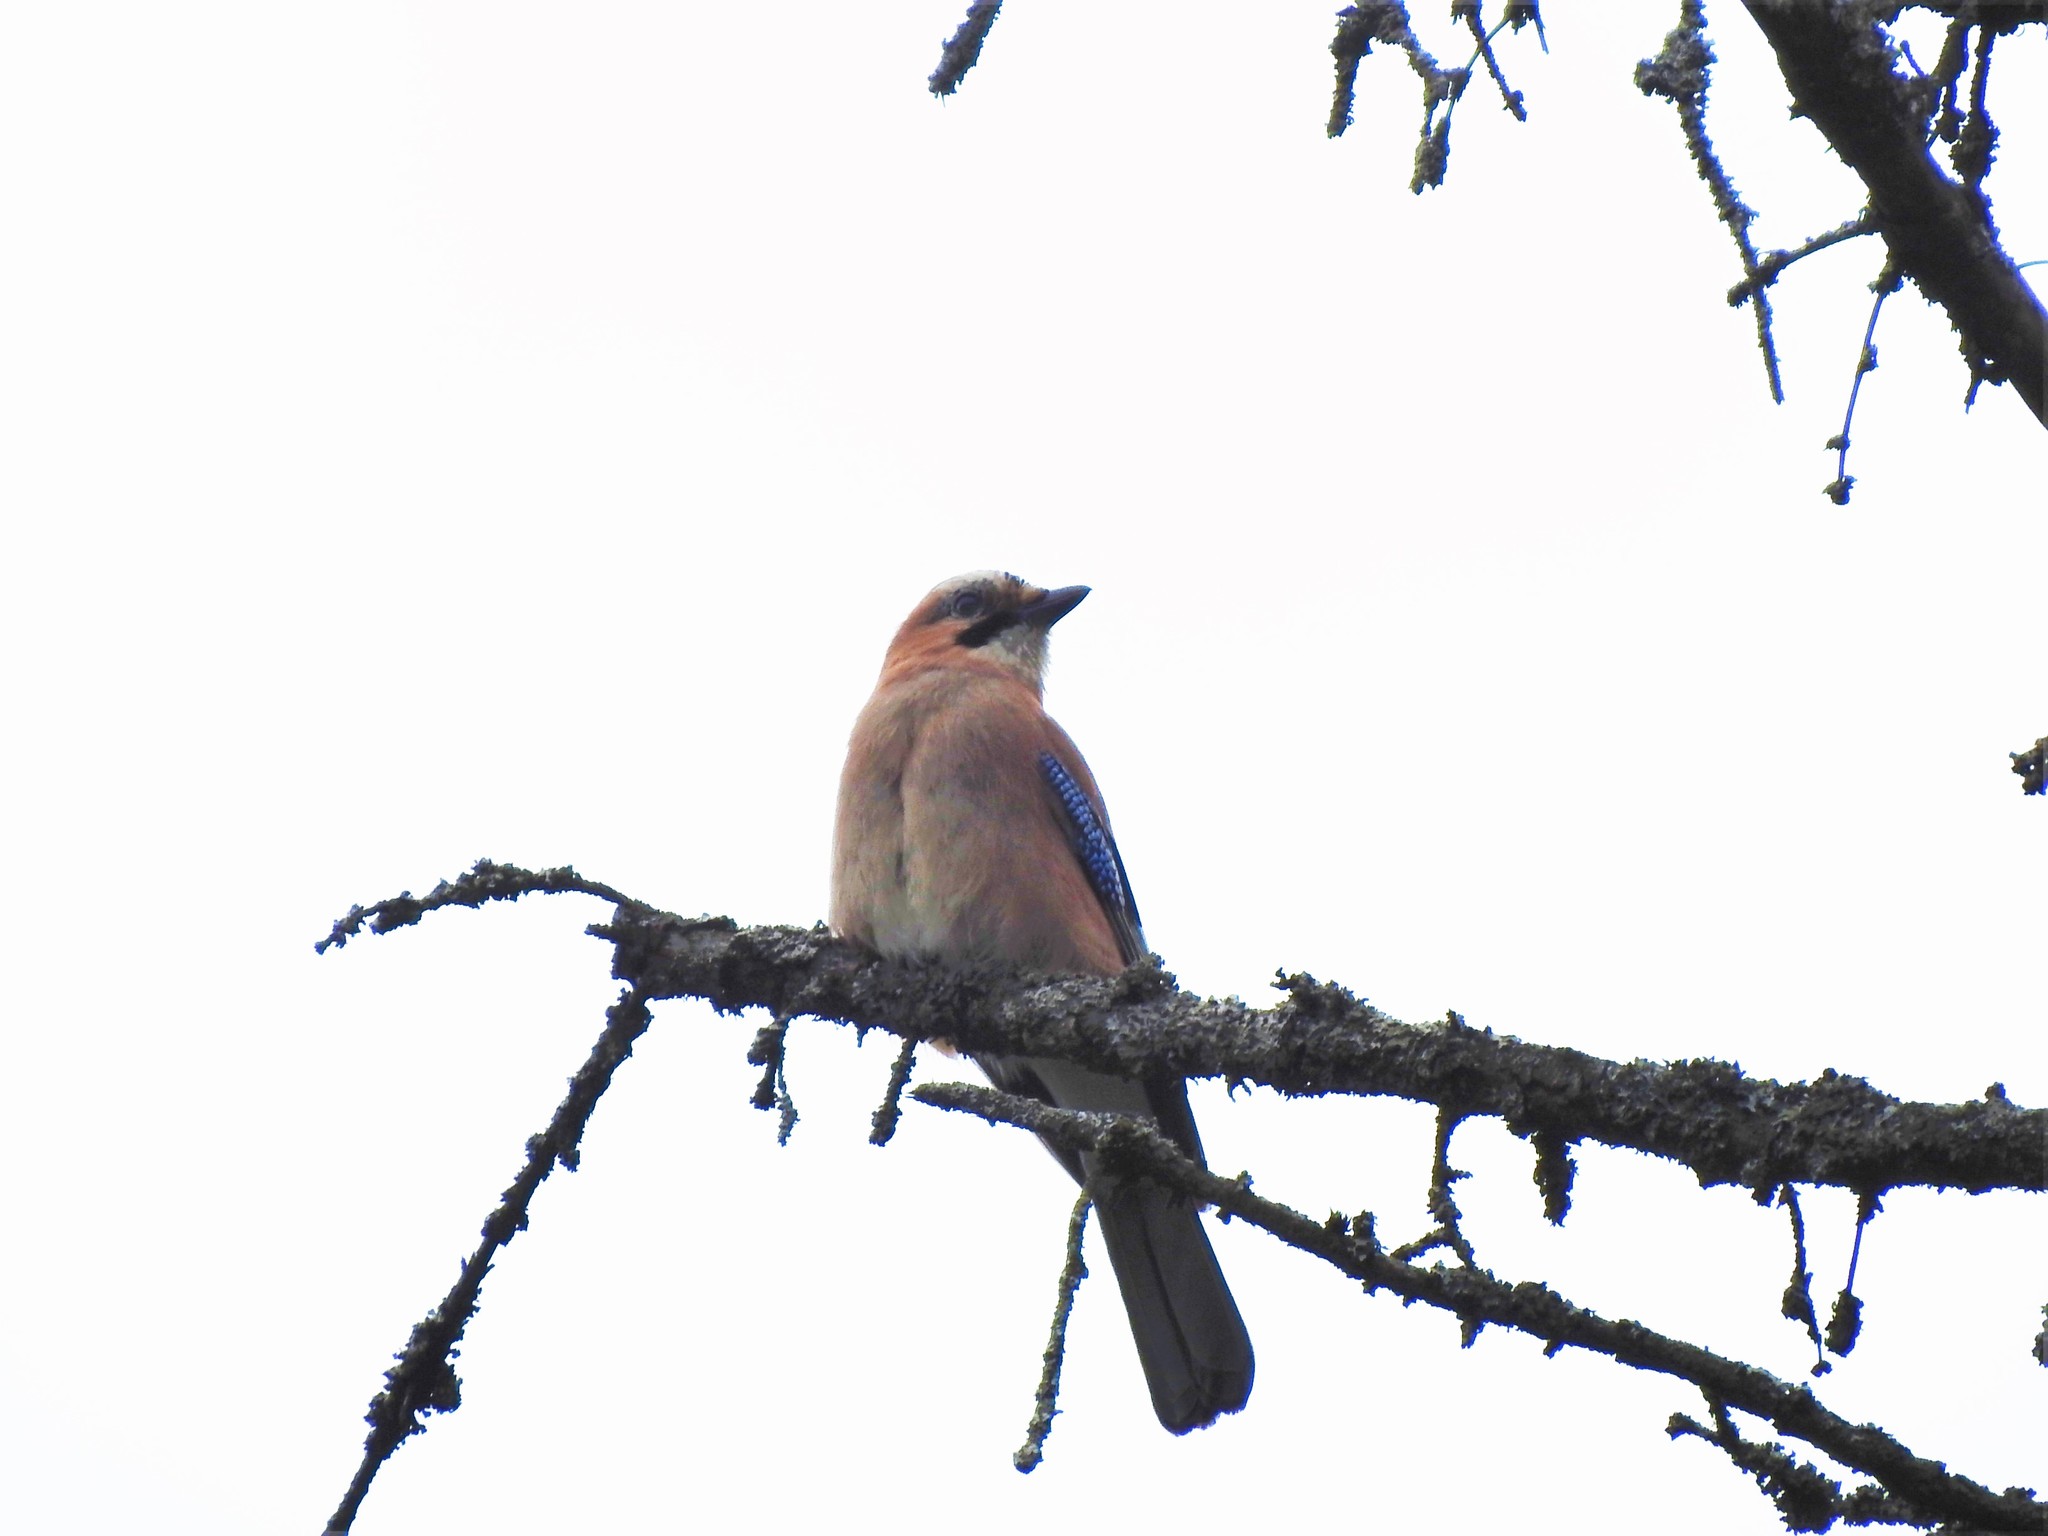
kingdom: Animalia
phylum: Chordata
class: Aves
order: Passeriformes
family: Corvidae
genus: Garrulus
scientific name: Garrulus glandarius
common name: Eurasian jay
